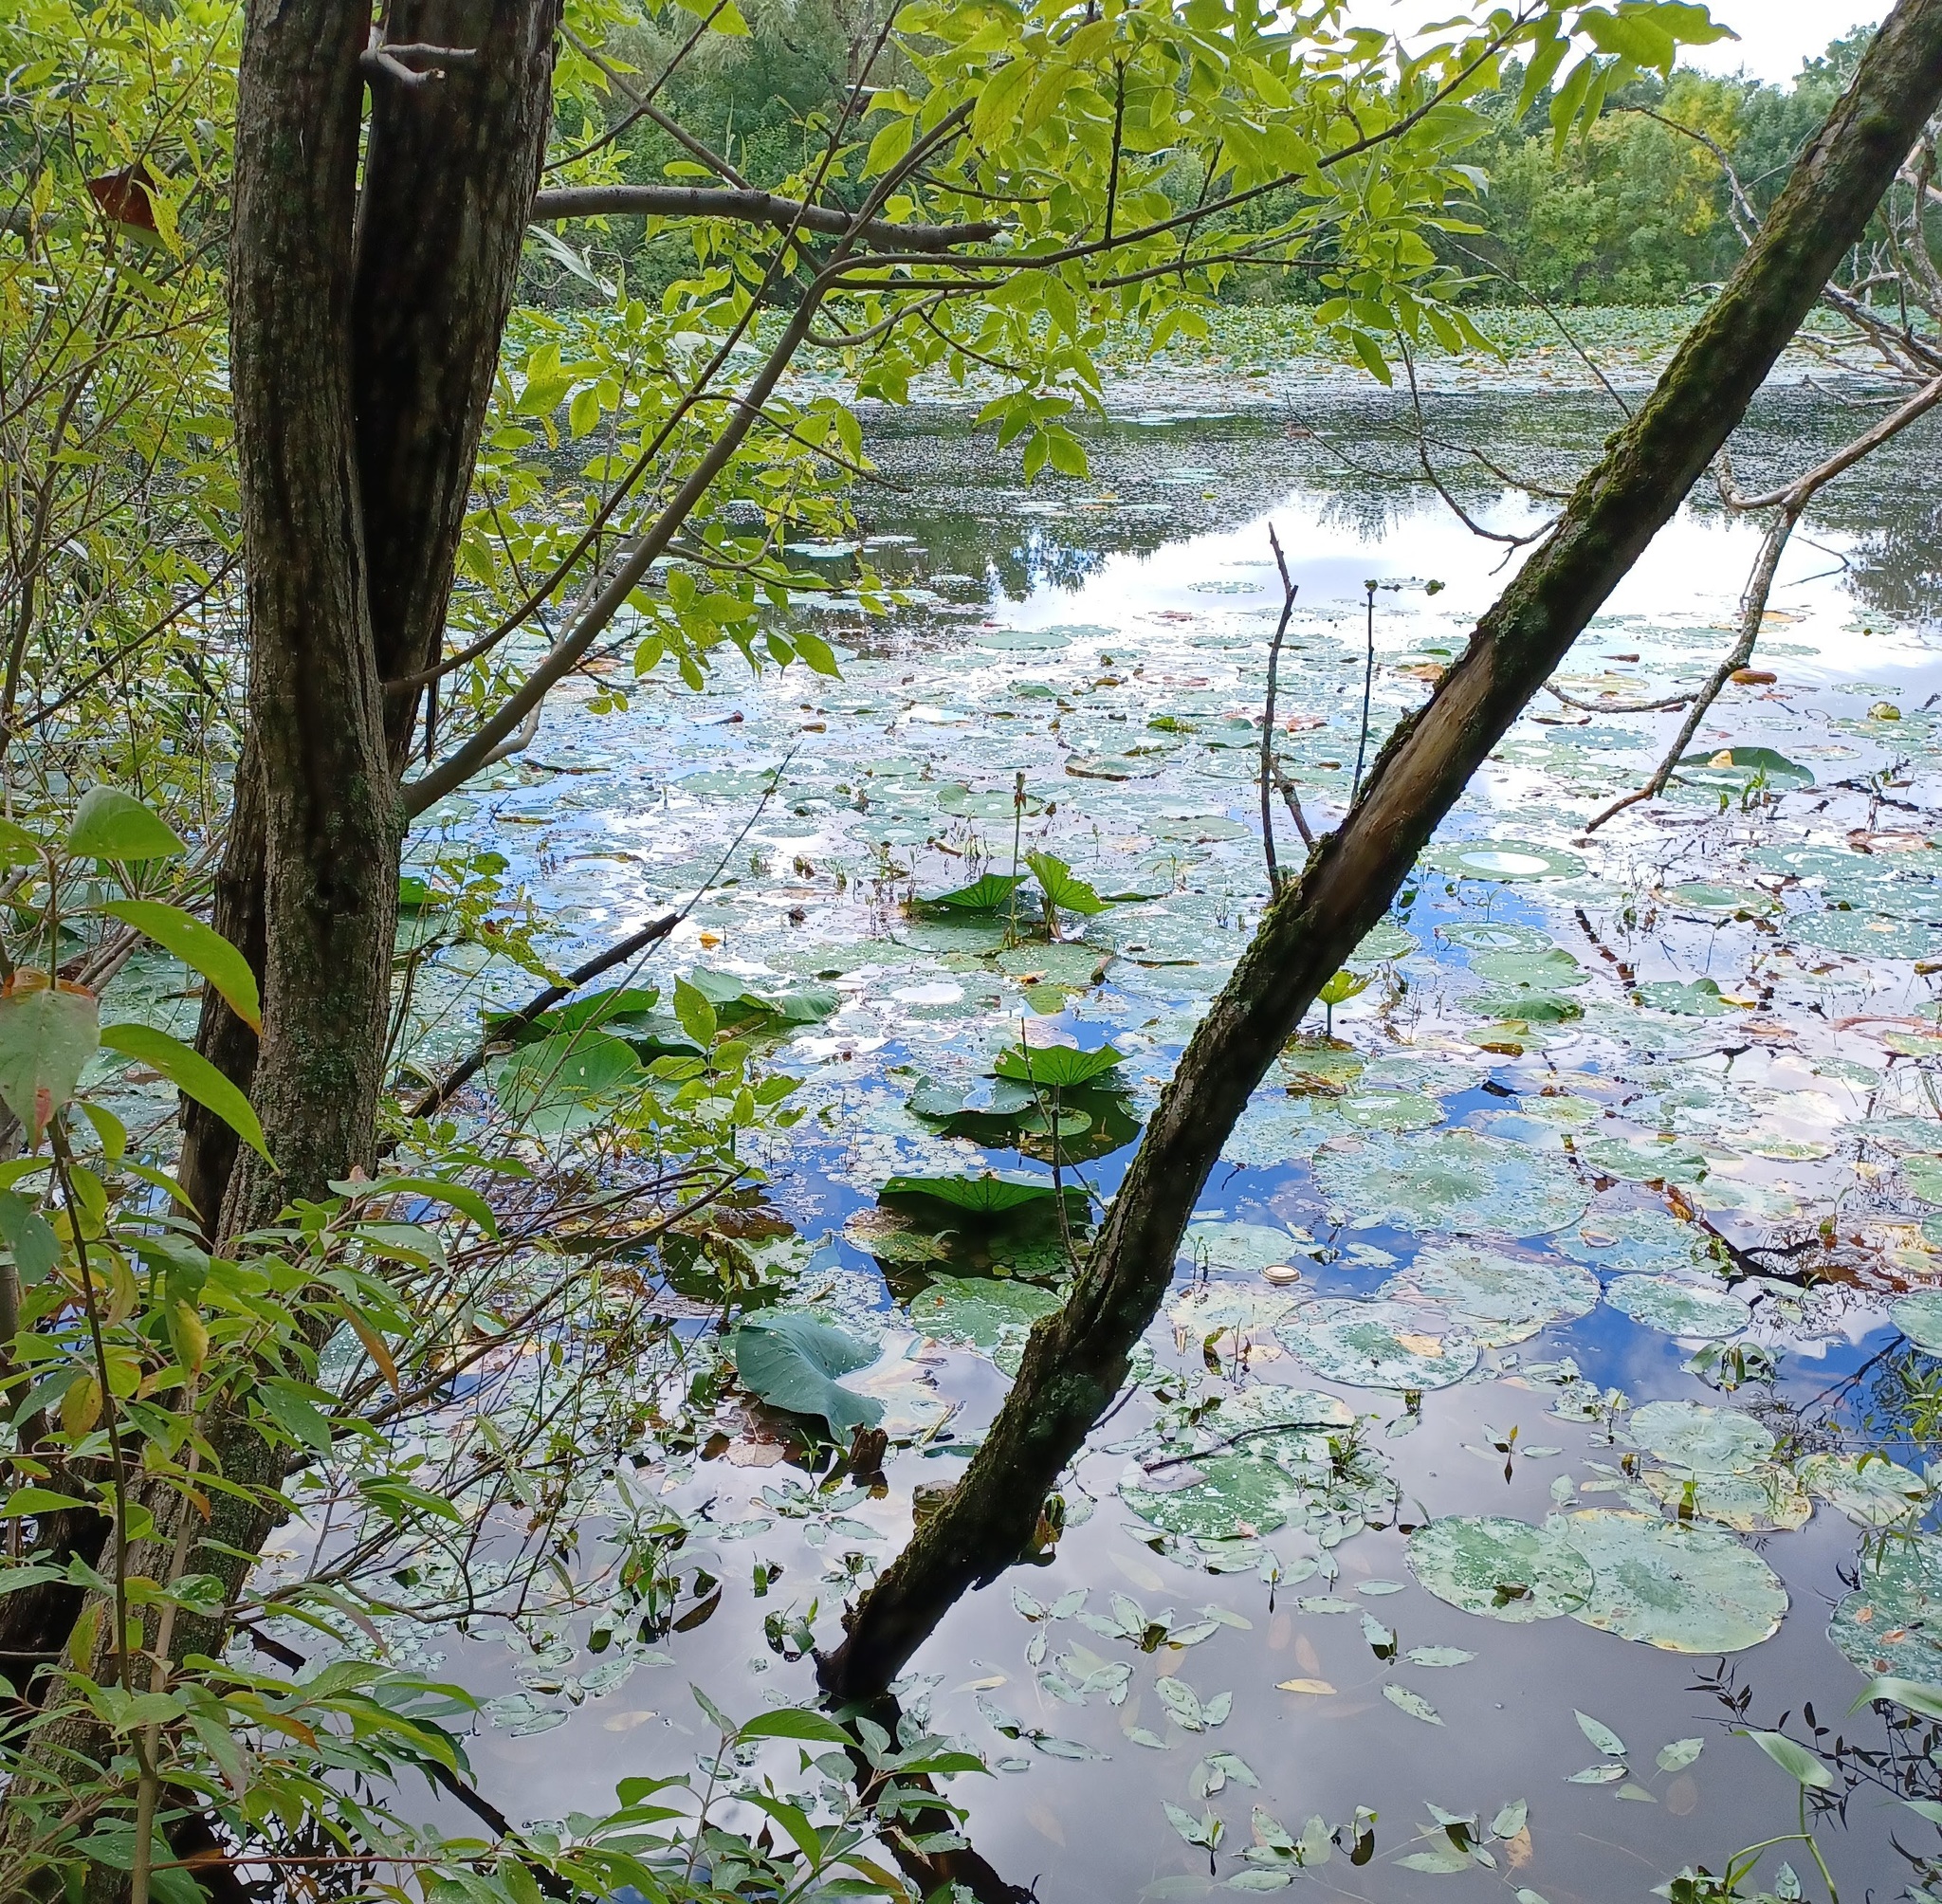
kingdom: Plantae
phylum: Tracheophyta
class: Magnoliopsida
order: Proteales
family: Nelumbonaceae
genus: Nelumbo
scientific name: Nelumbo lutea
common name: American lotus
